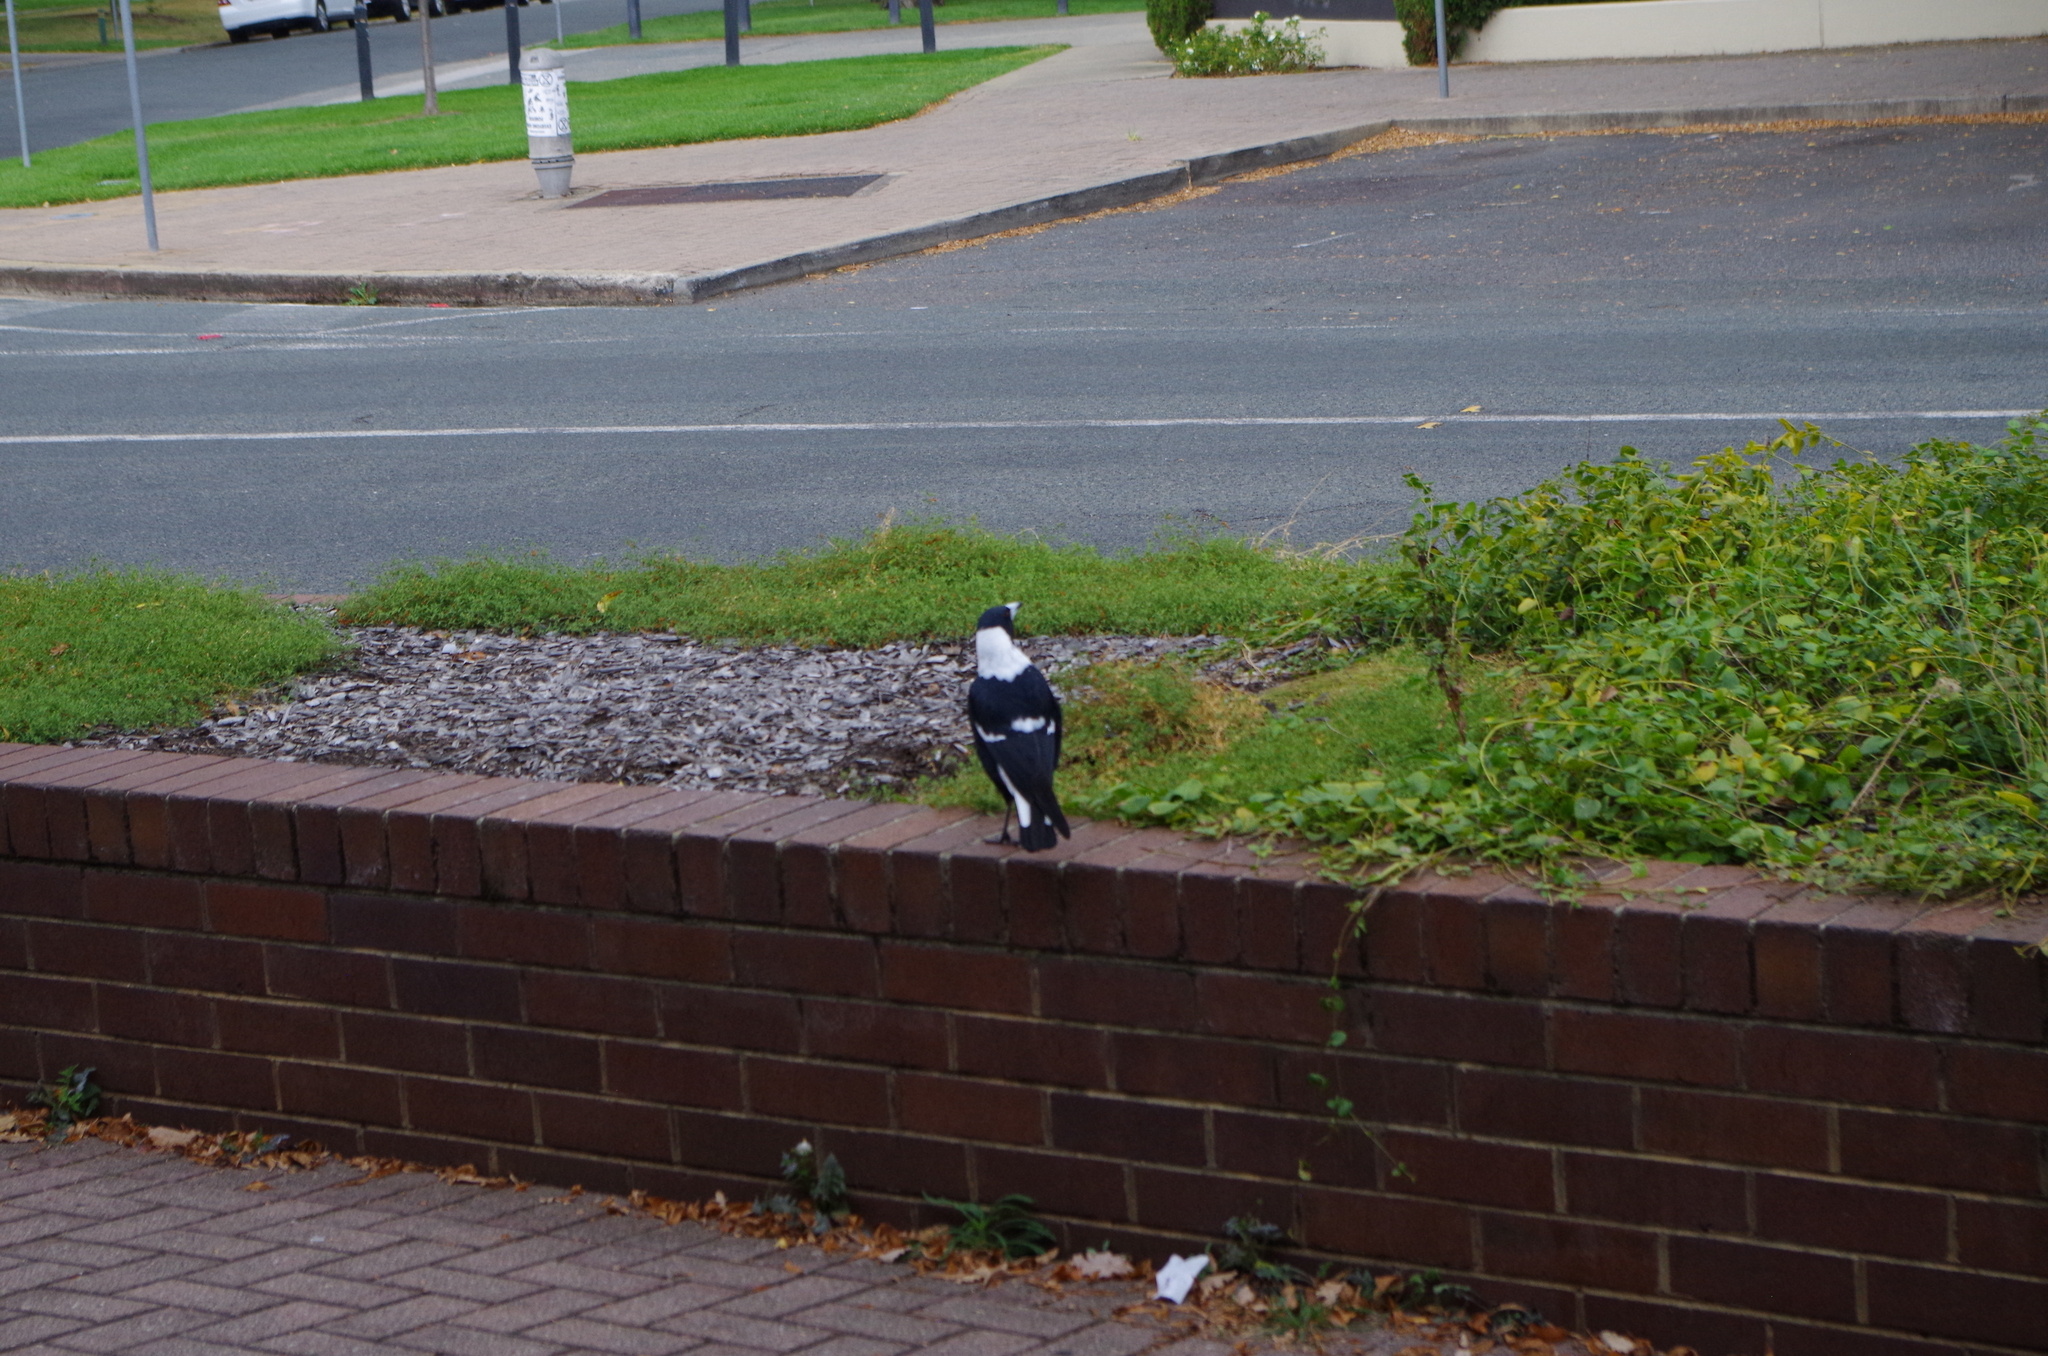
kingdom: Animalia
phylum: Chordata
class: Aves
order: Passeriformes
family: Cracticidae
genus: Gymnorhina
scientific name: Gymnorhina tibicen
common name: Australian magpie
